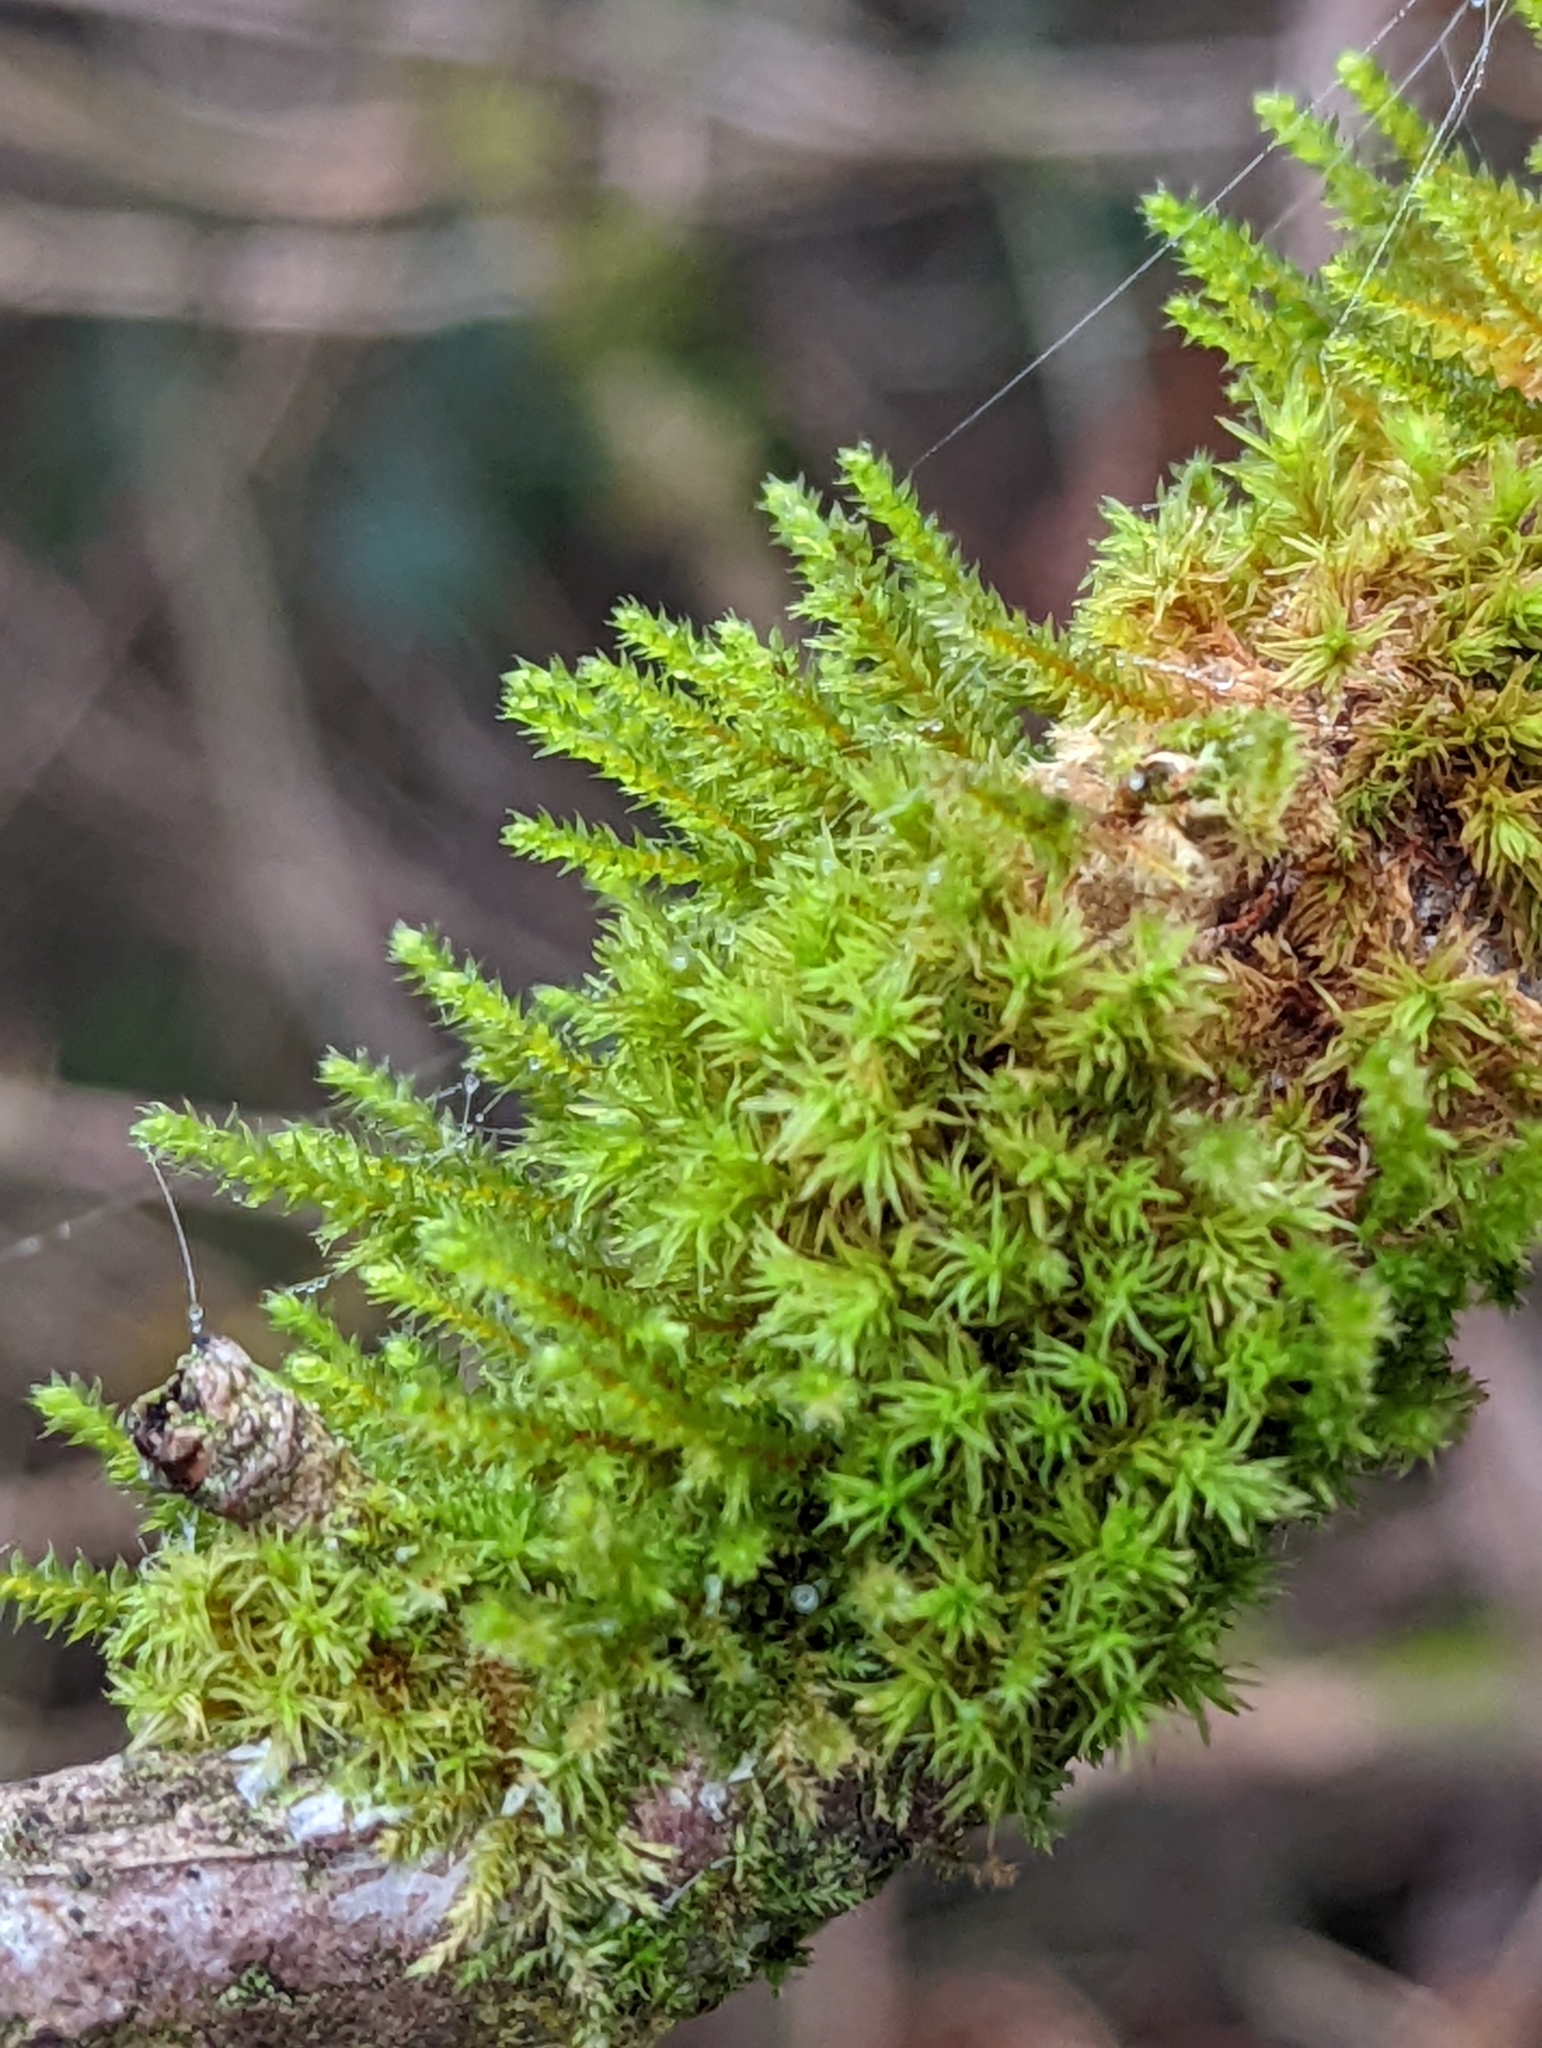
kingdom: Plantae
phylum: Bryophyta
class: Bryopsida
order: Hypnales
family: Cryphaeaceae
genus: Cryphaea
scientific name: Cryphaea heteromalla
